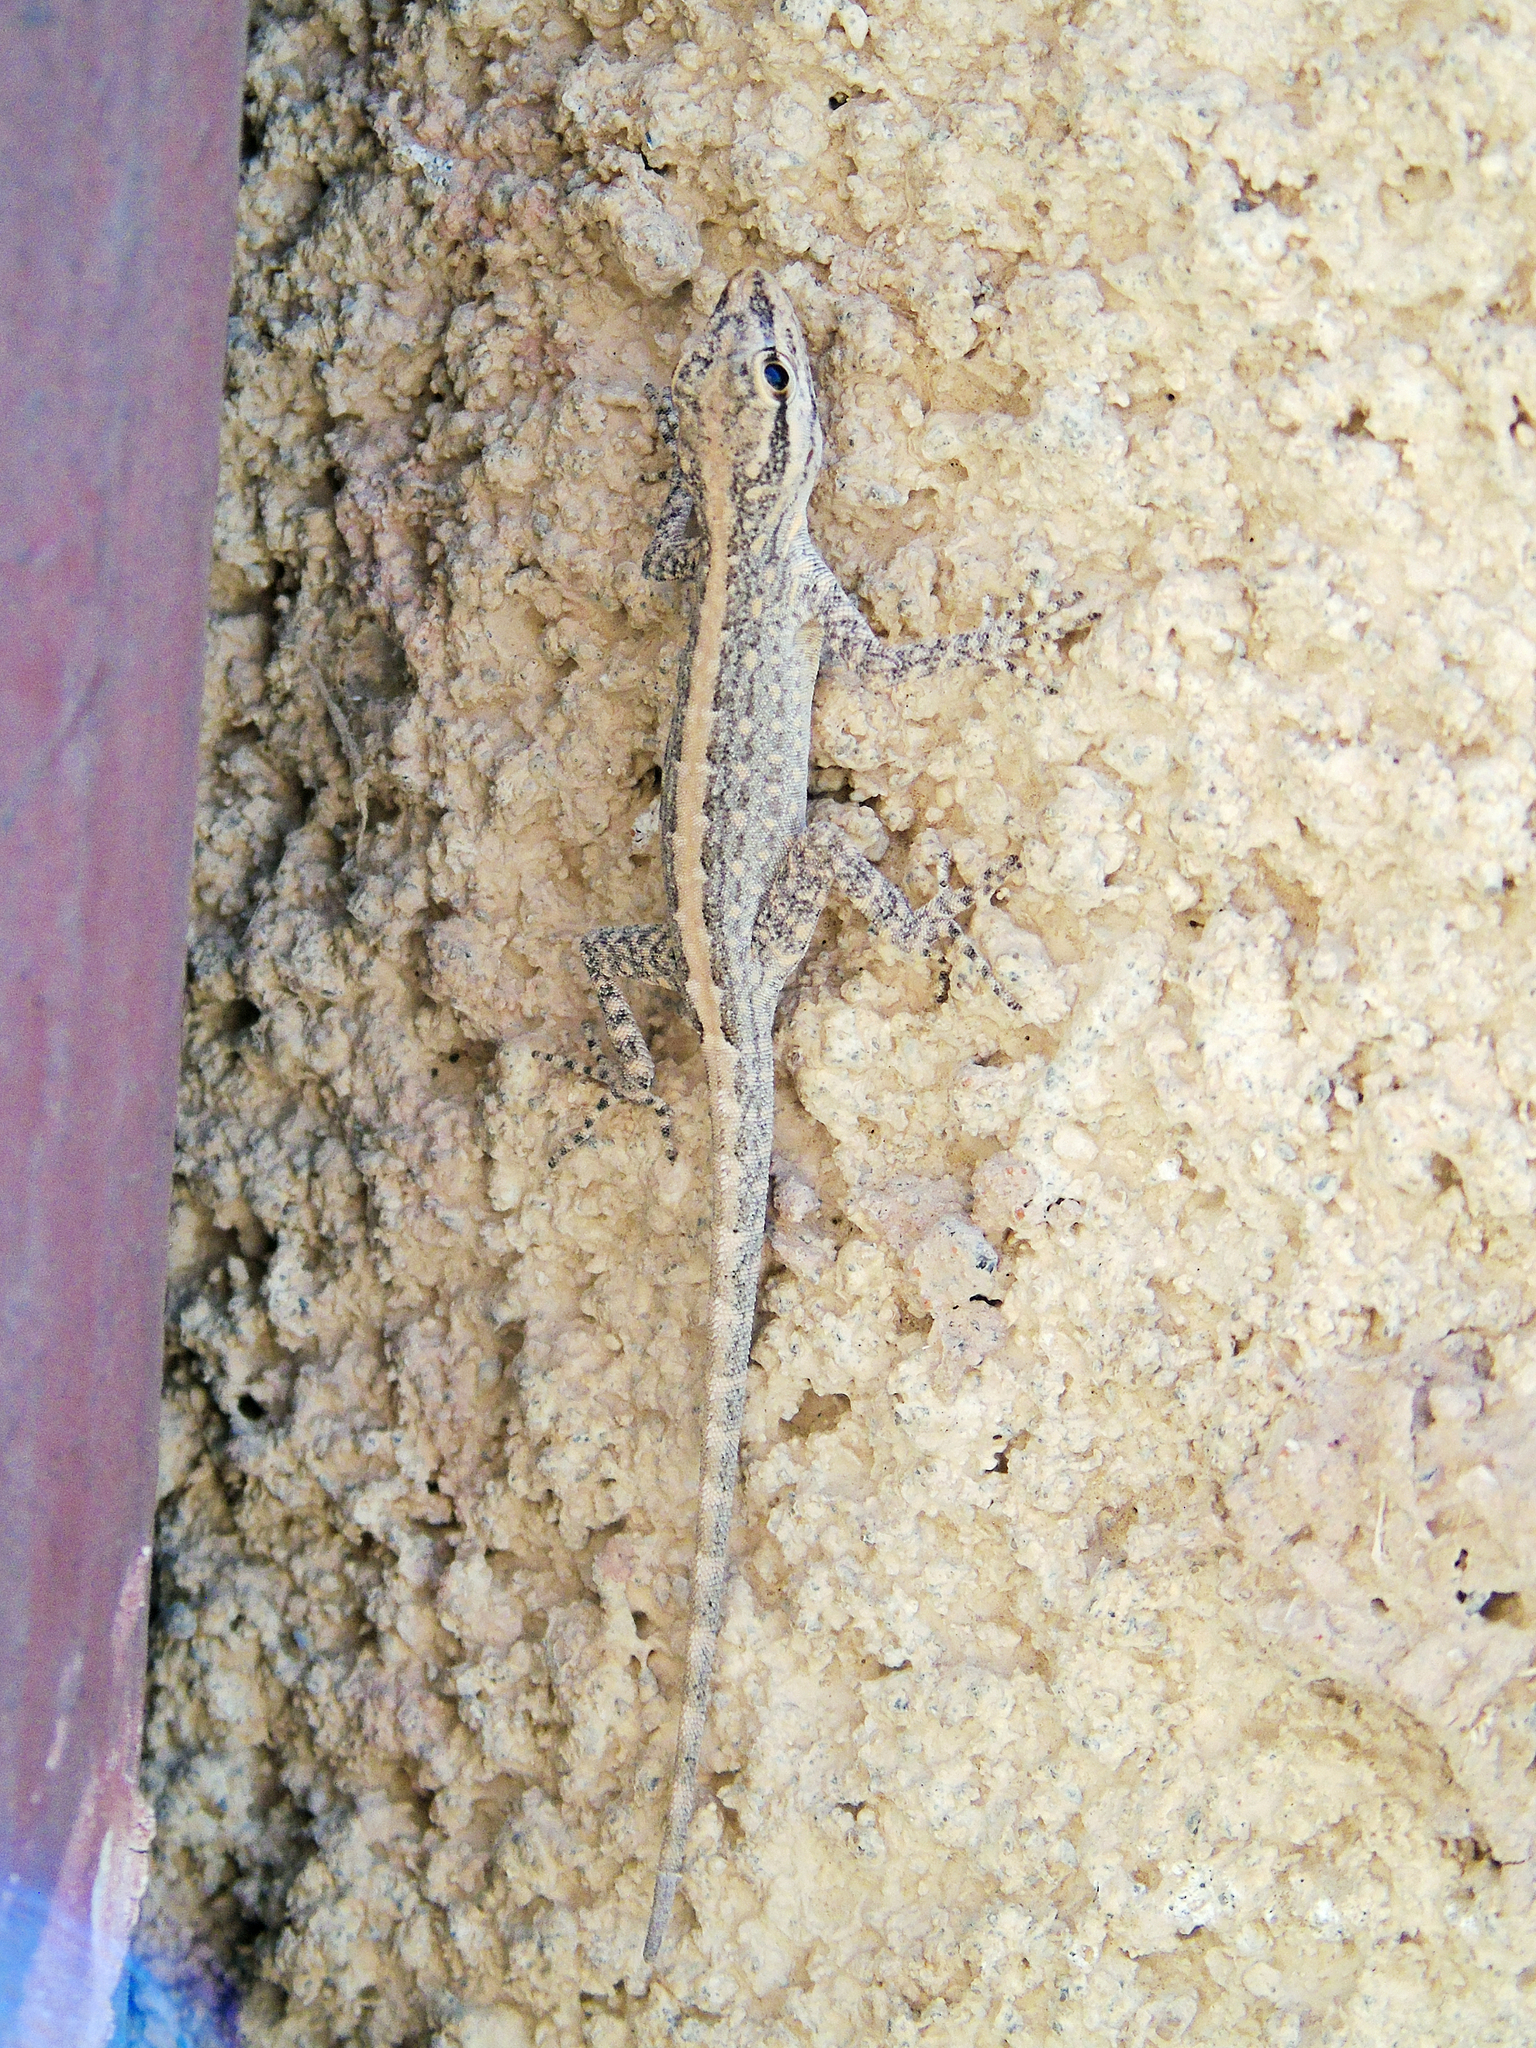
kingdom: Animalia
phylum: Chordata
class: Squamata
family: Sphaerodactylidae
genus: Pristurus
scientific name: Pristurus gallagheri
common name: Gallagher’s rock gecko
